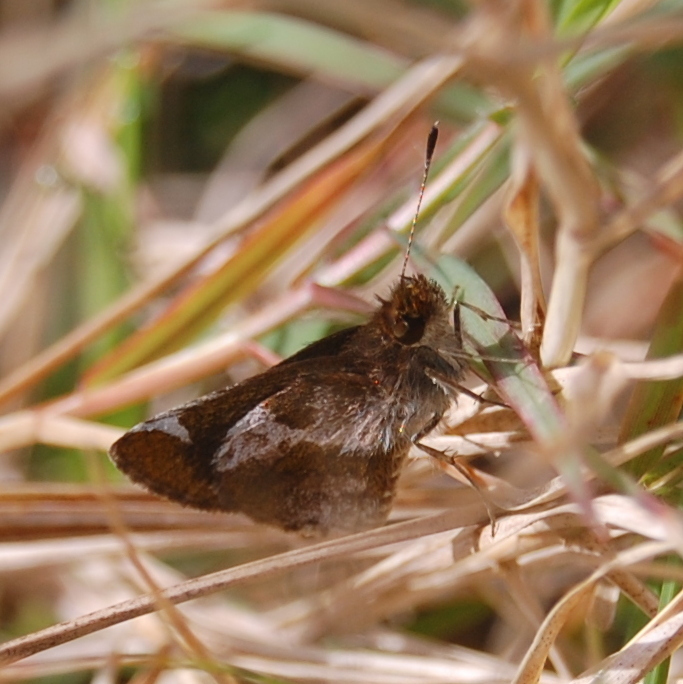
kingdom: Animalia
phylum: Arthropoda
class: Insecta
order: Lepidoptera
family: Hesperiidae
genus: Callimormus
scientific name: Callimormus
